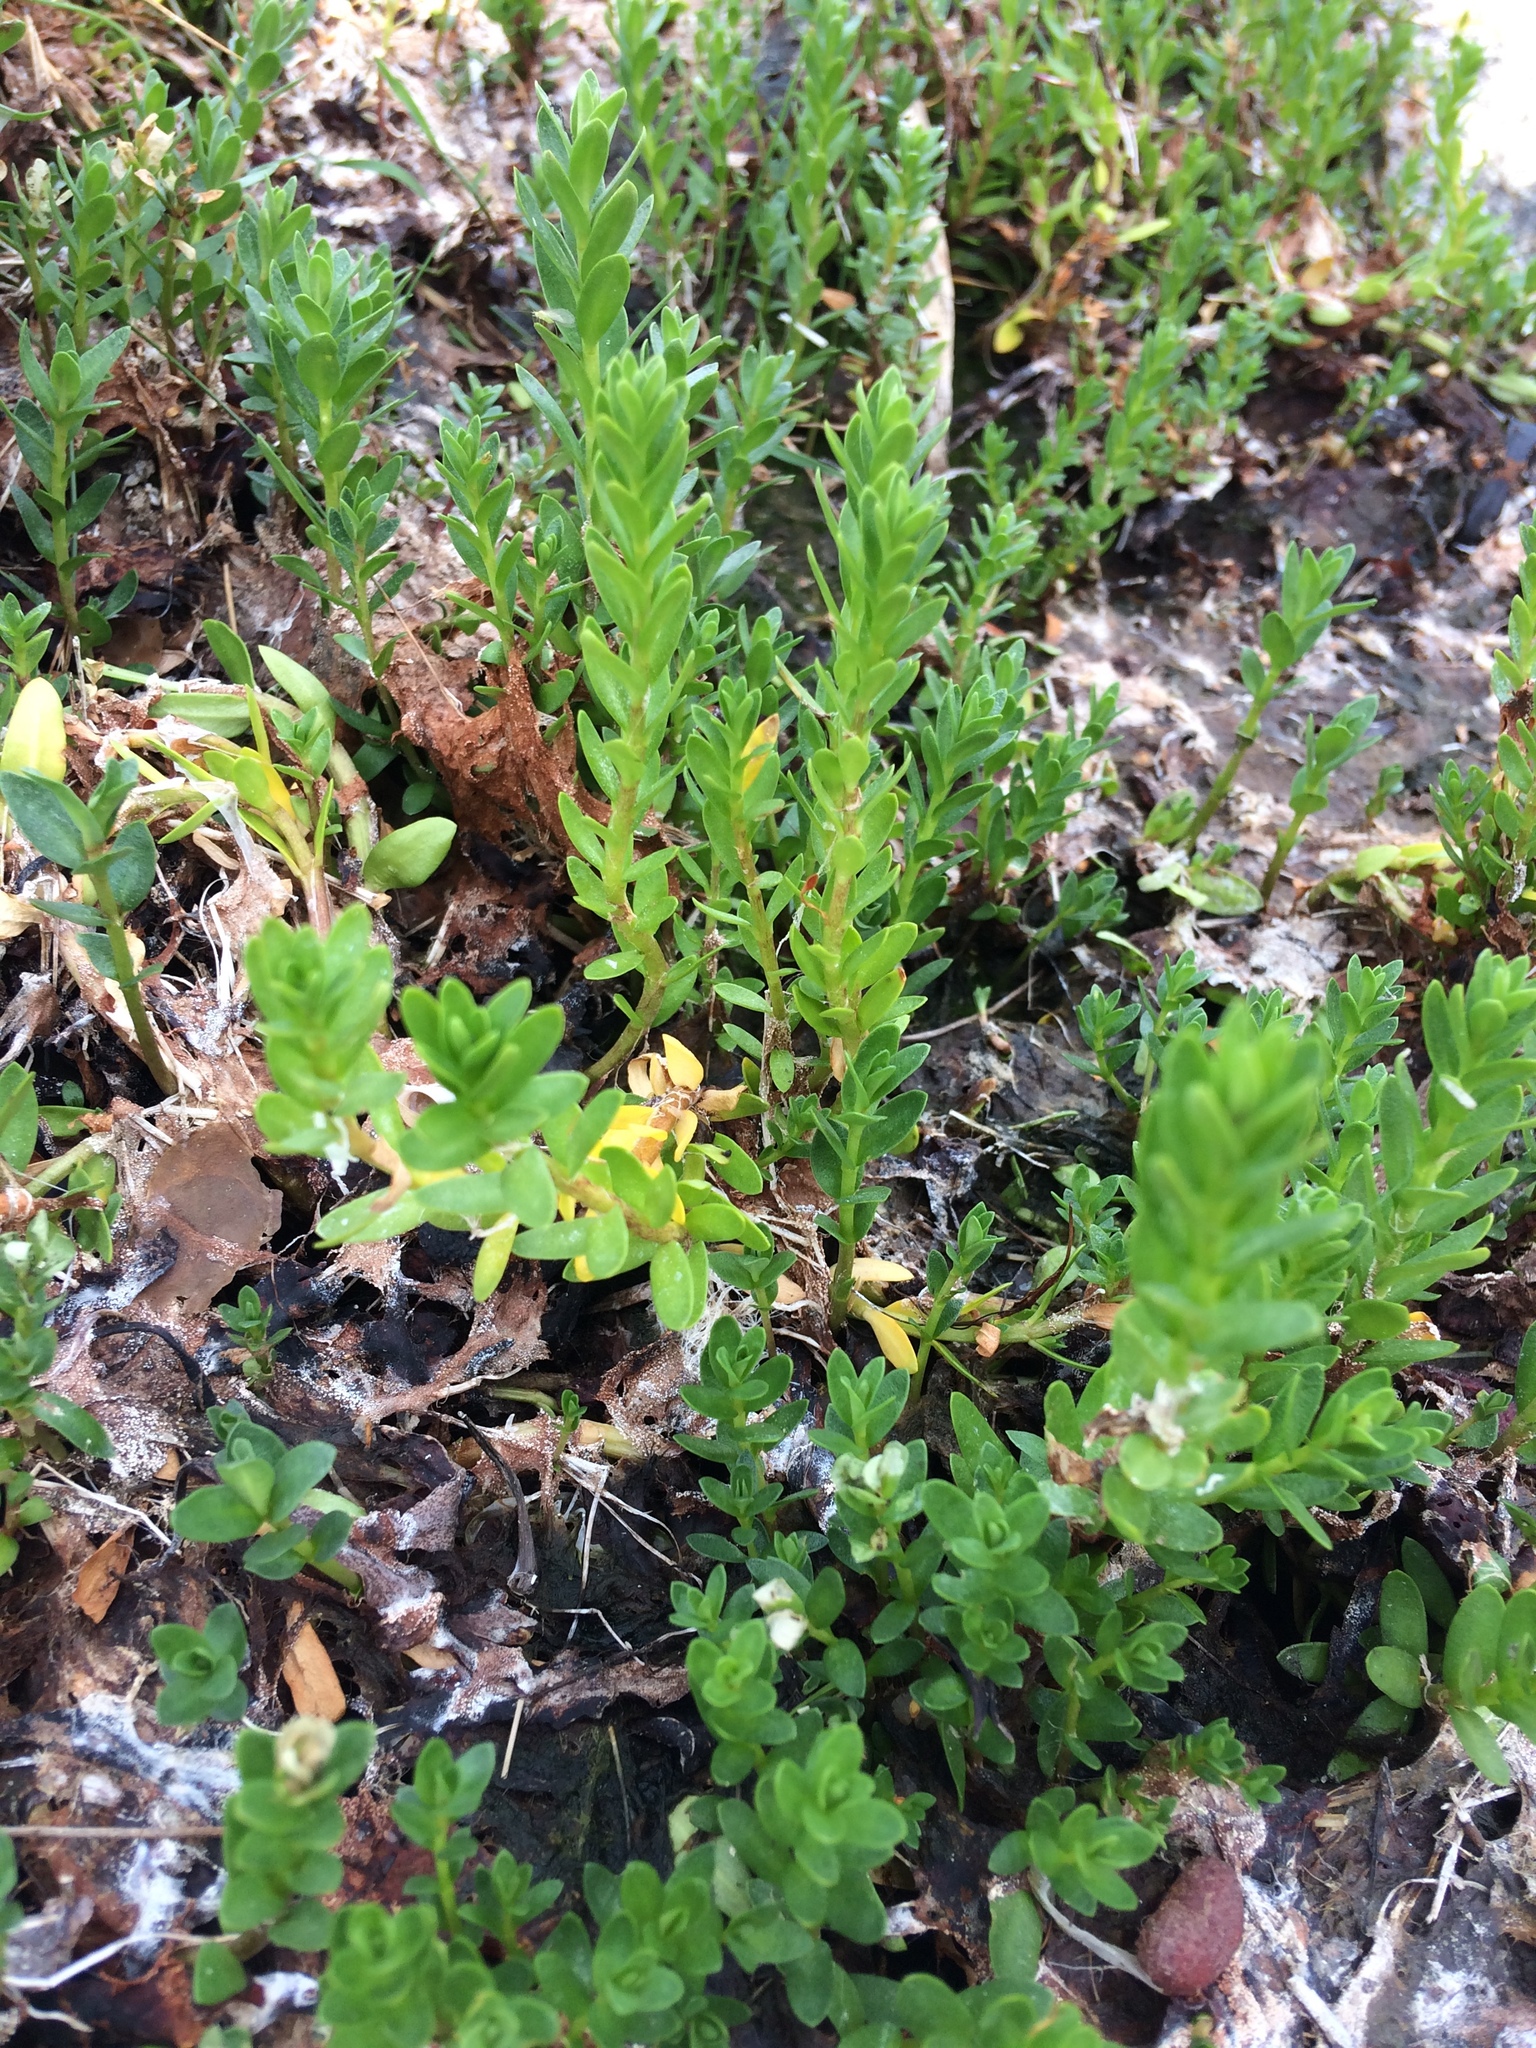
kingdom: Plantae
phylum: Tracheophyta
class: Magnoliopsida
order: Ericales
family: Primulaceae
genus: Lysimachia
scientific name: Lysimachia maritima
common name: Sea milkwort
